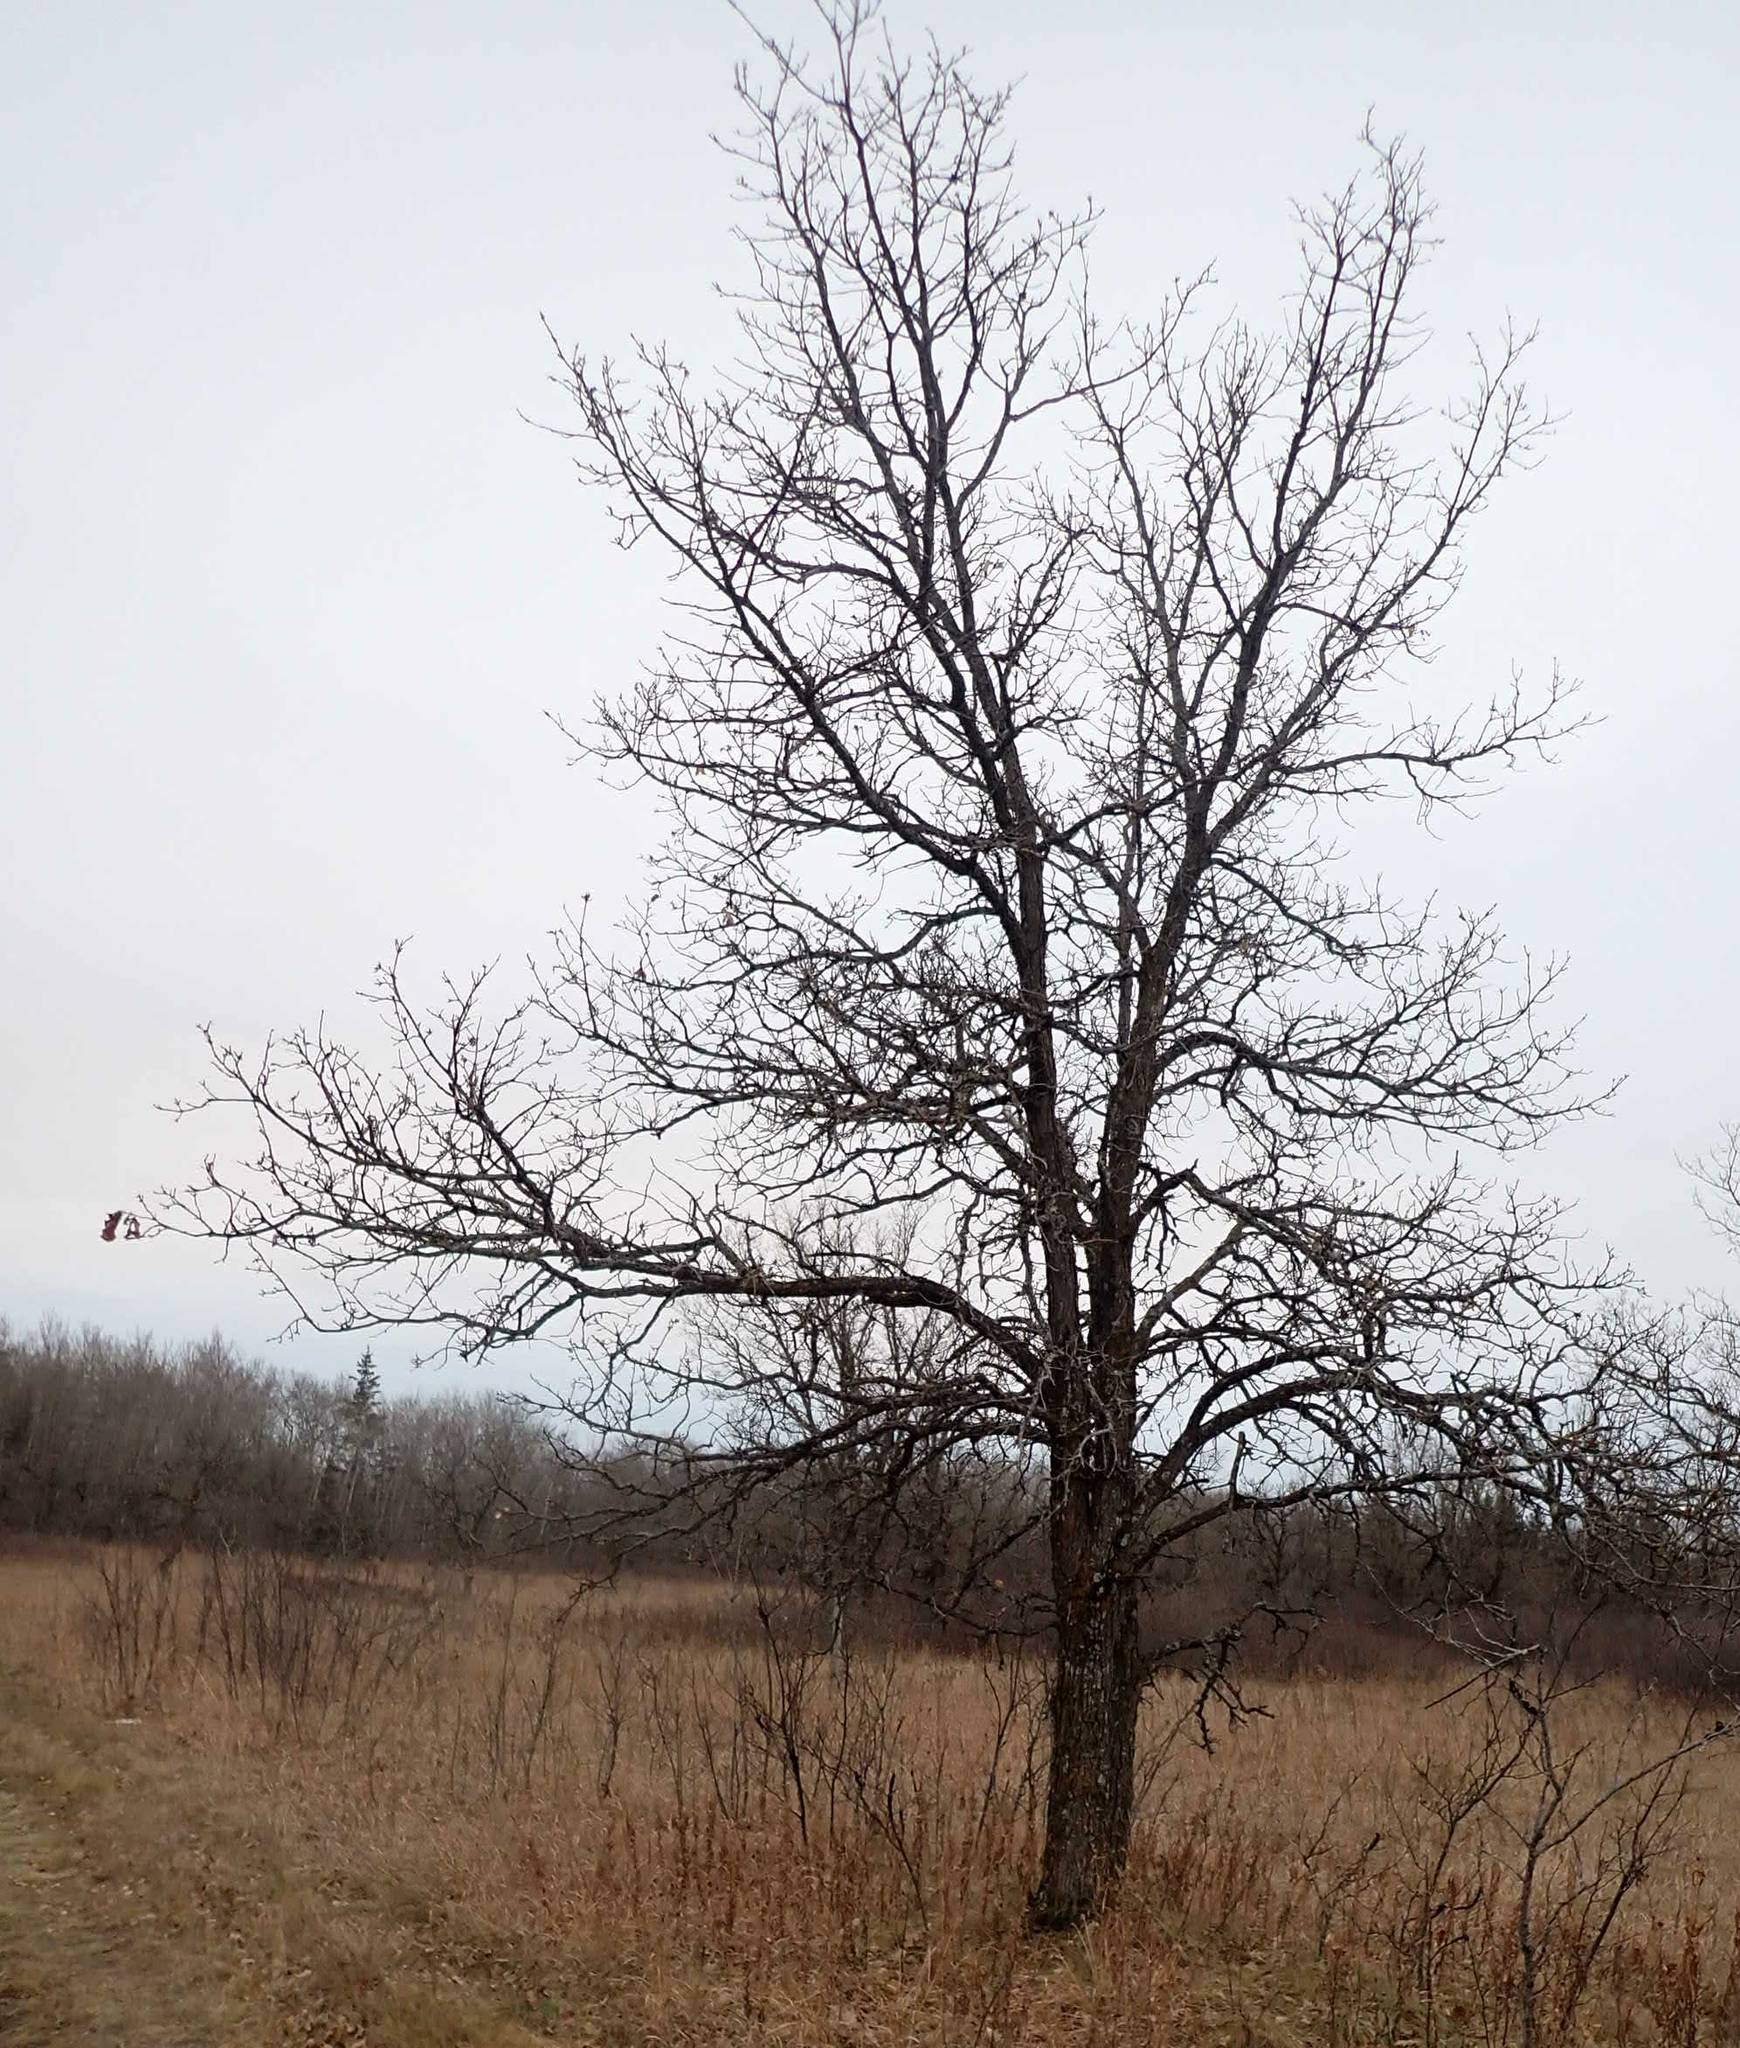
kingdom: Plantae
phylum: Tracheophyta
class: Magnoliopsida
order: Fagales
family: Fagaceae
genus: Quercus
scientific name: Quercus macrocarpa
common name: Bur oak
